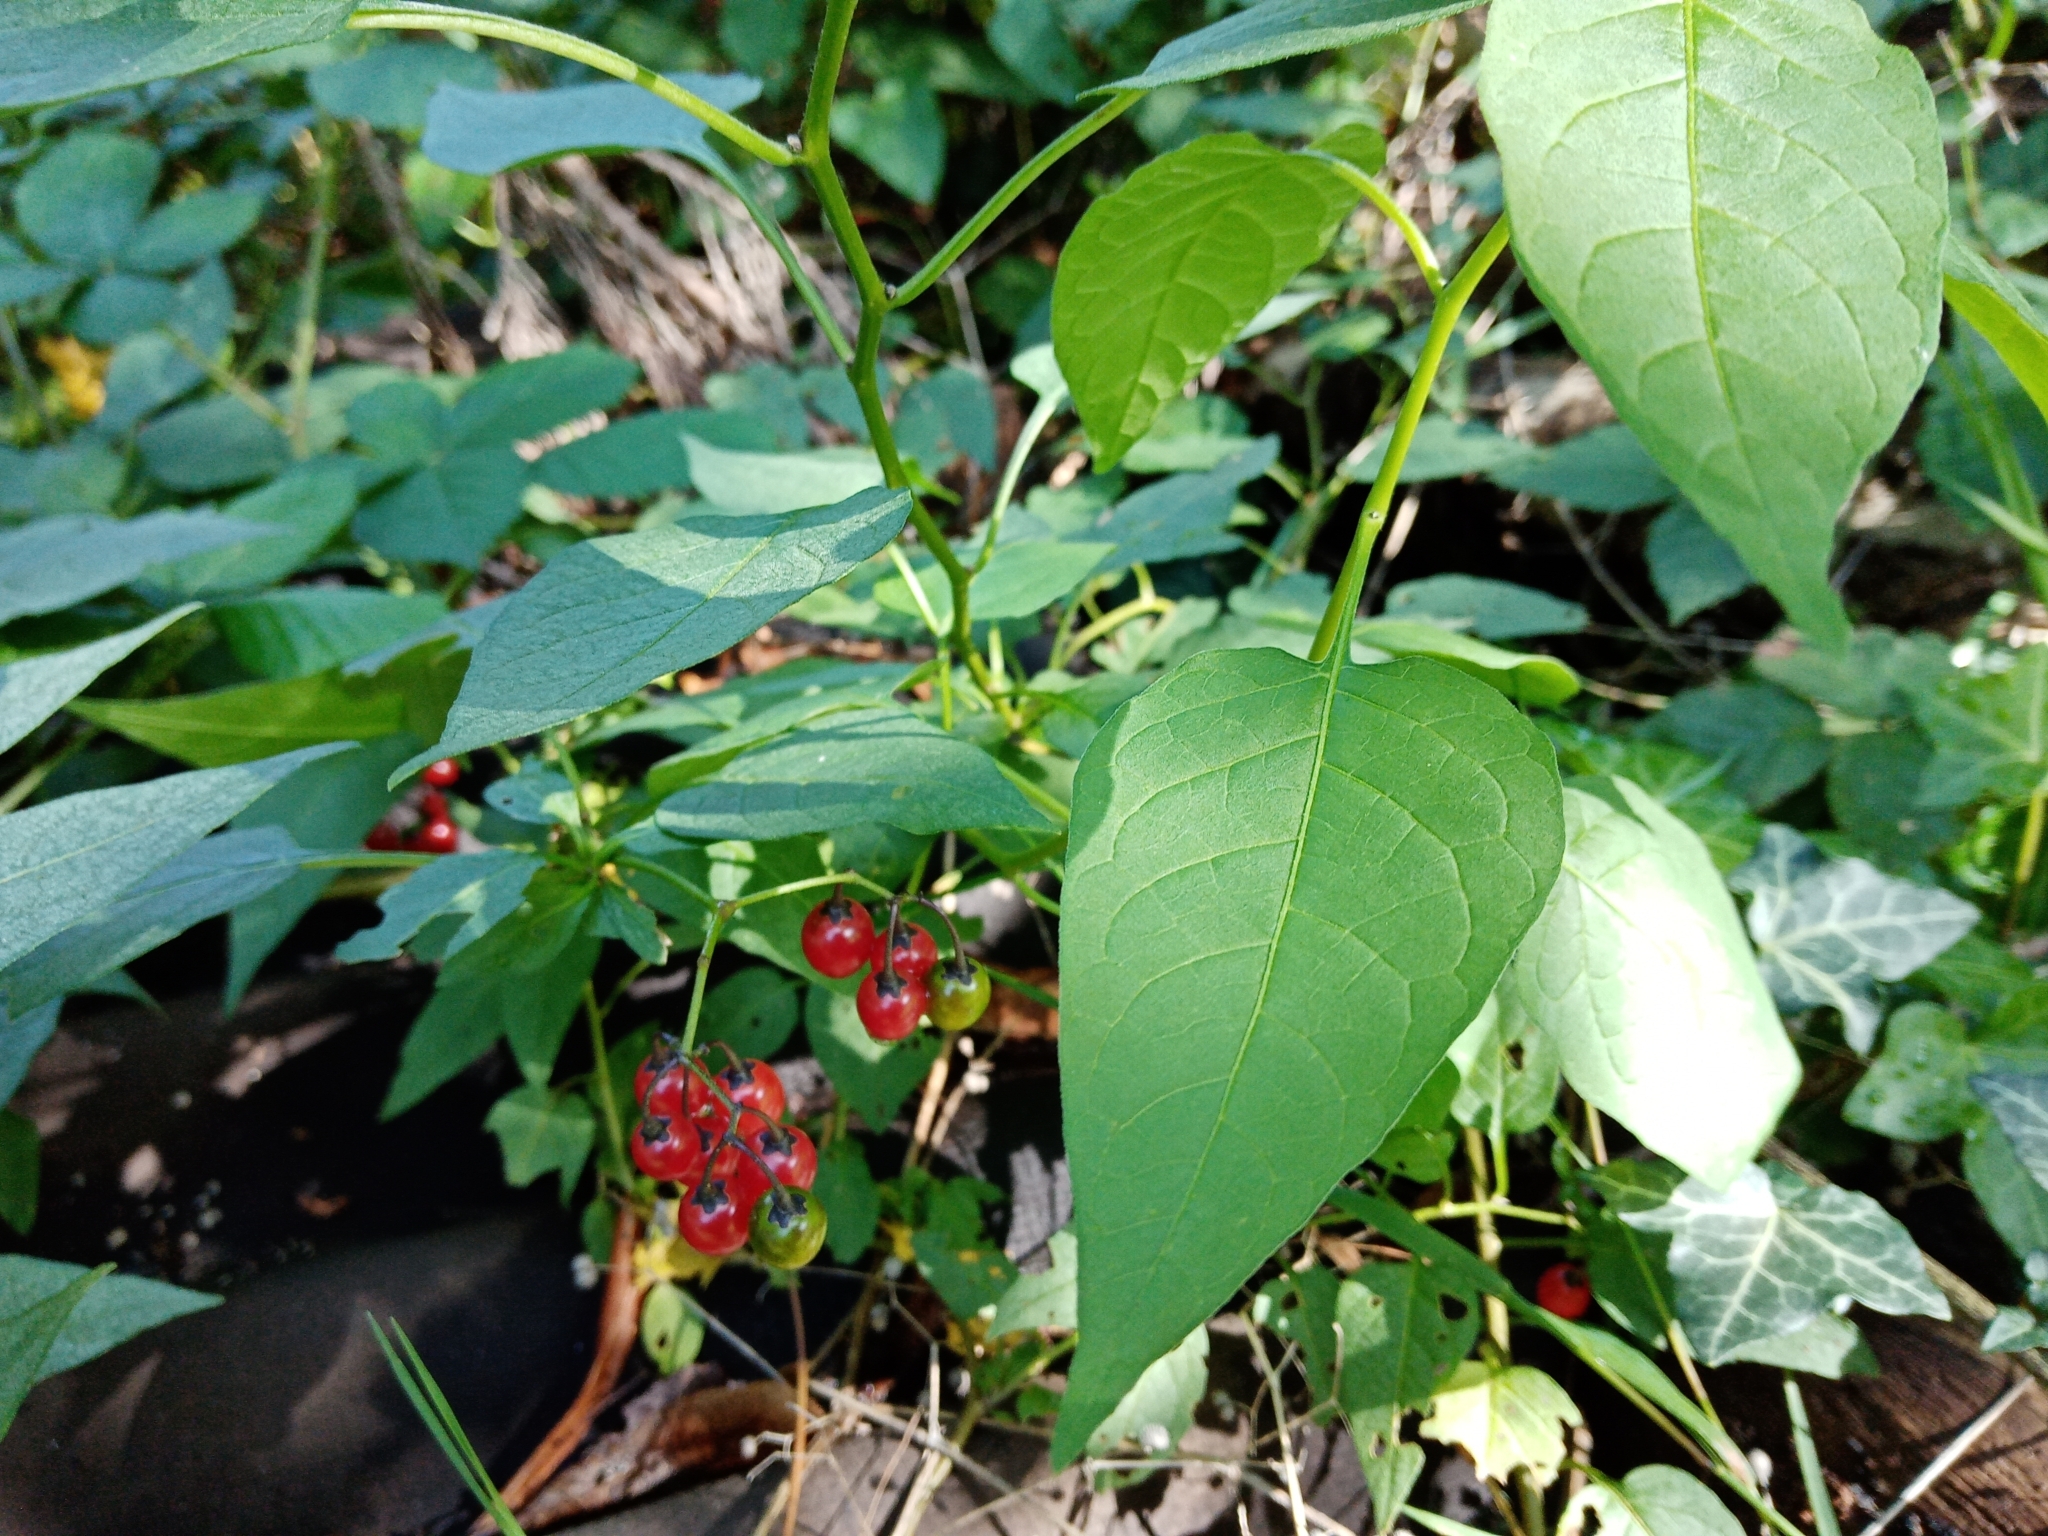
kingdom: Plantae
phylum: Tracheophyta
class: Magnoliopsida
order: Solanales
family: Solanaceae
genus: Solanum
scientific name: Solanum dulcamara
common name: Climbing nightshade
